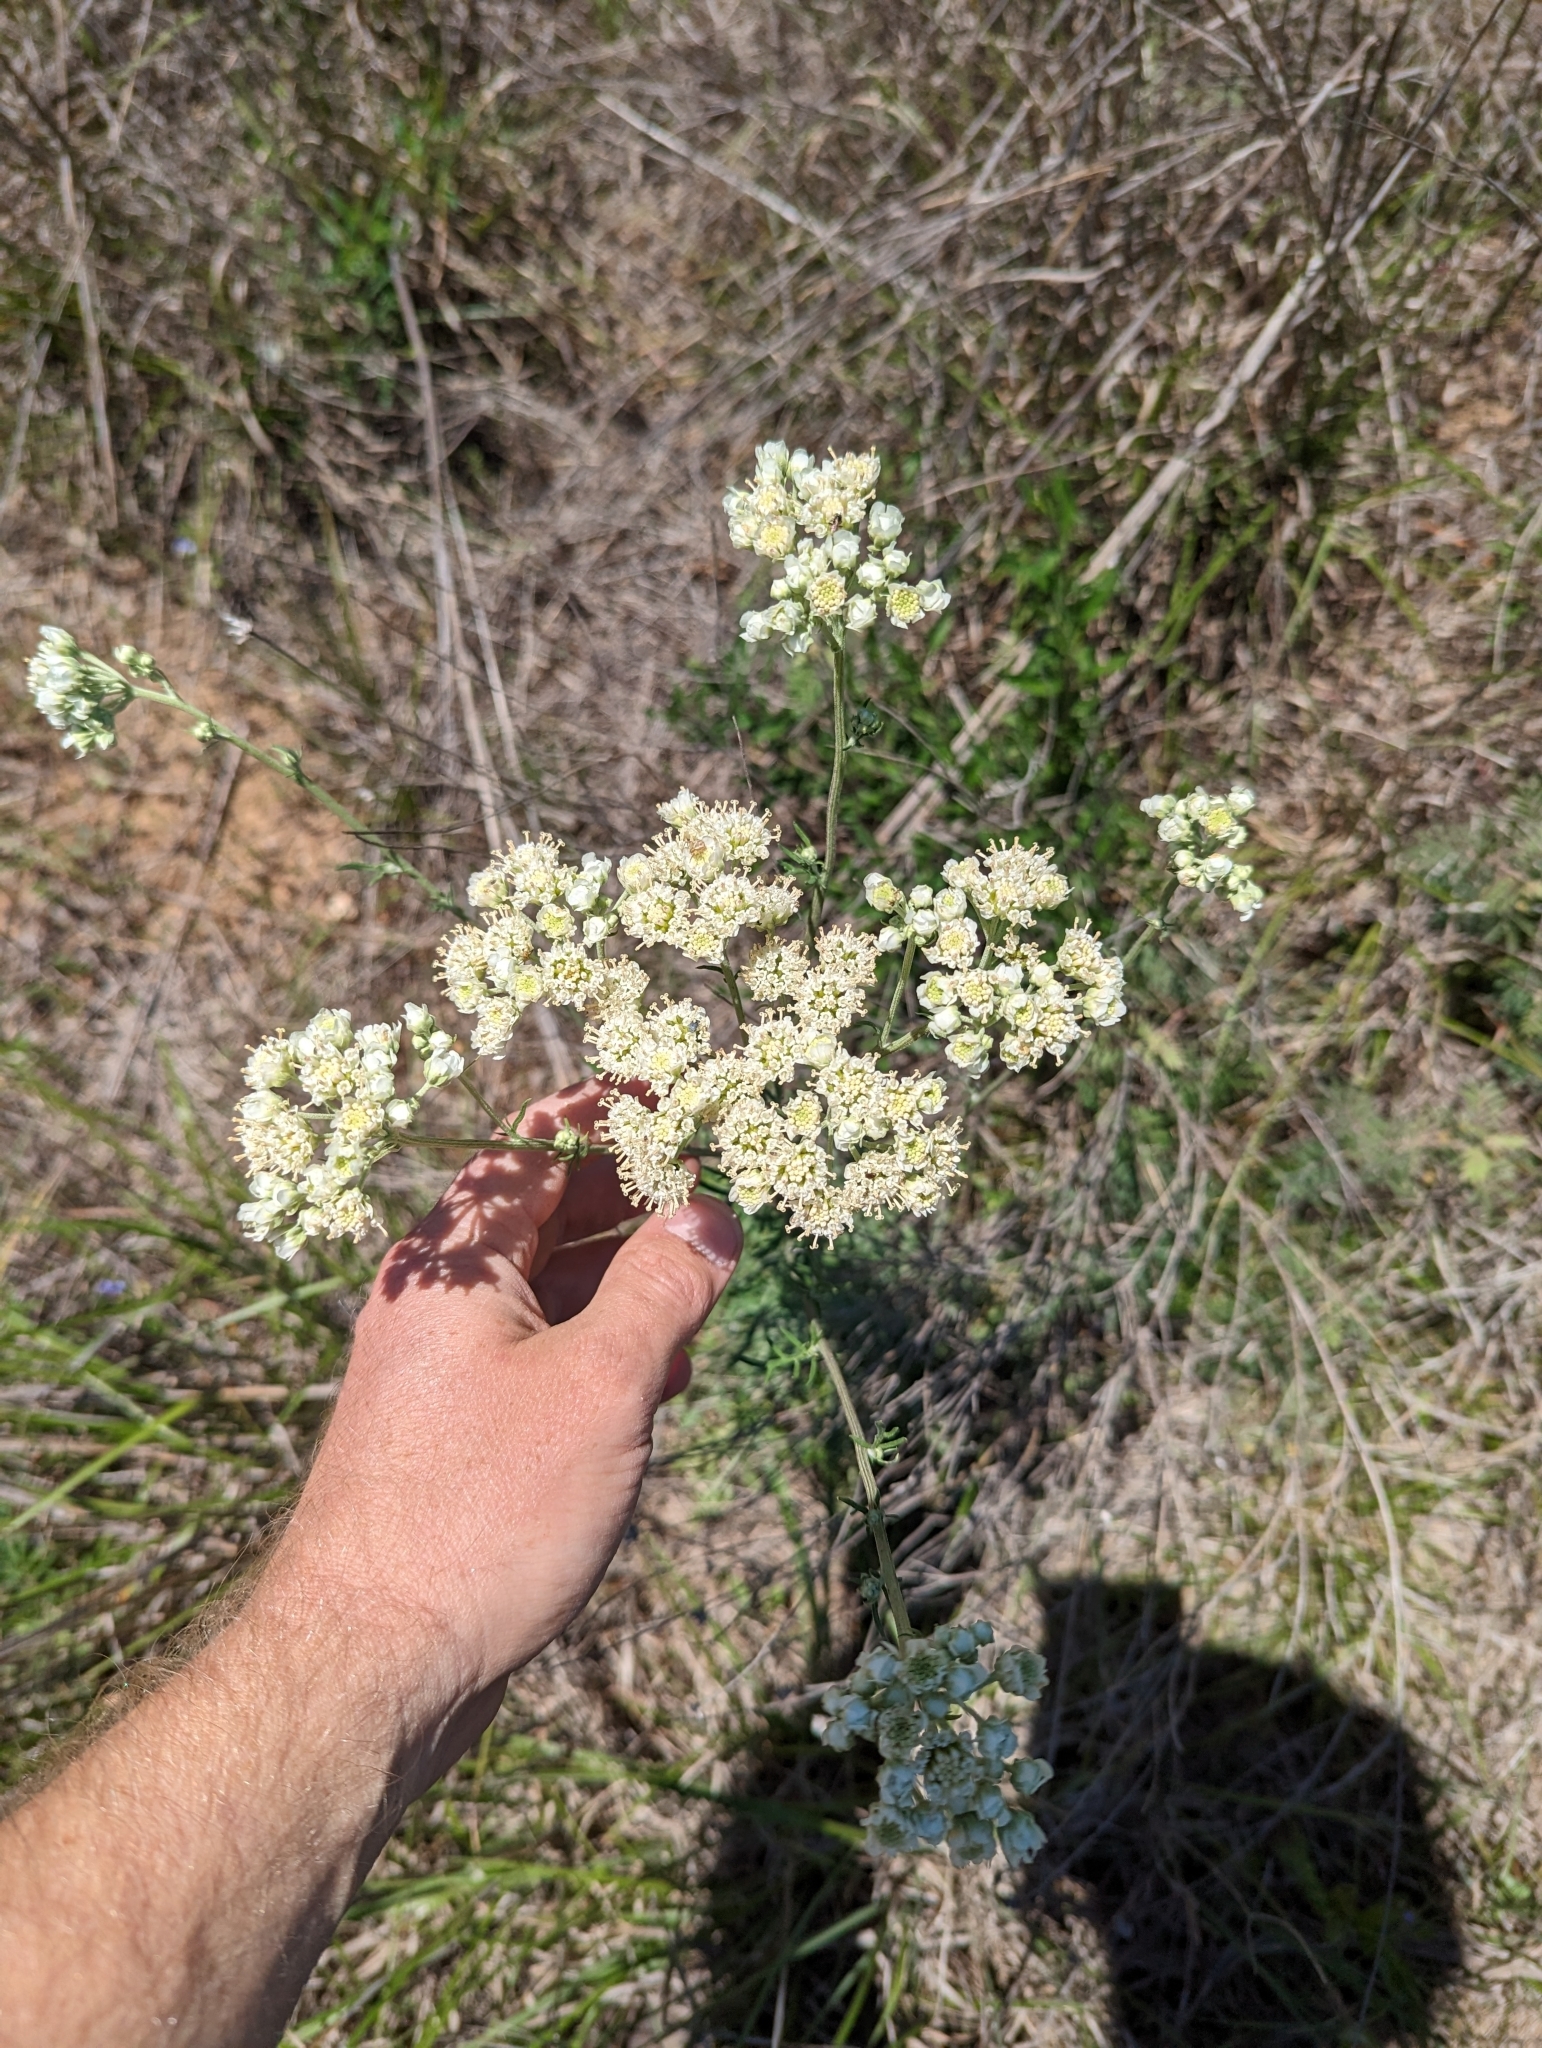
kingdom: Plantae
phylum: Tracheophyta
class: Magnoliopsida
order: Asterales
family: Asteraceae
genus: Hymenopappus
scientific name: Hymenopappus scabiosaeus
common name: Carolina woollywhite
